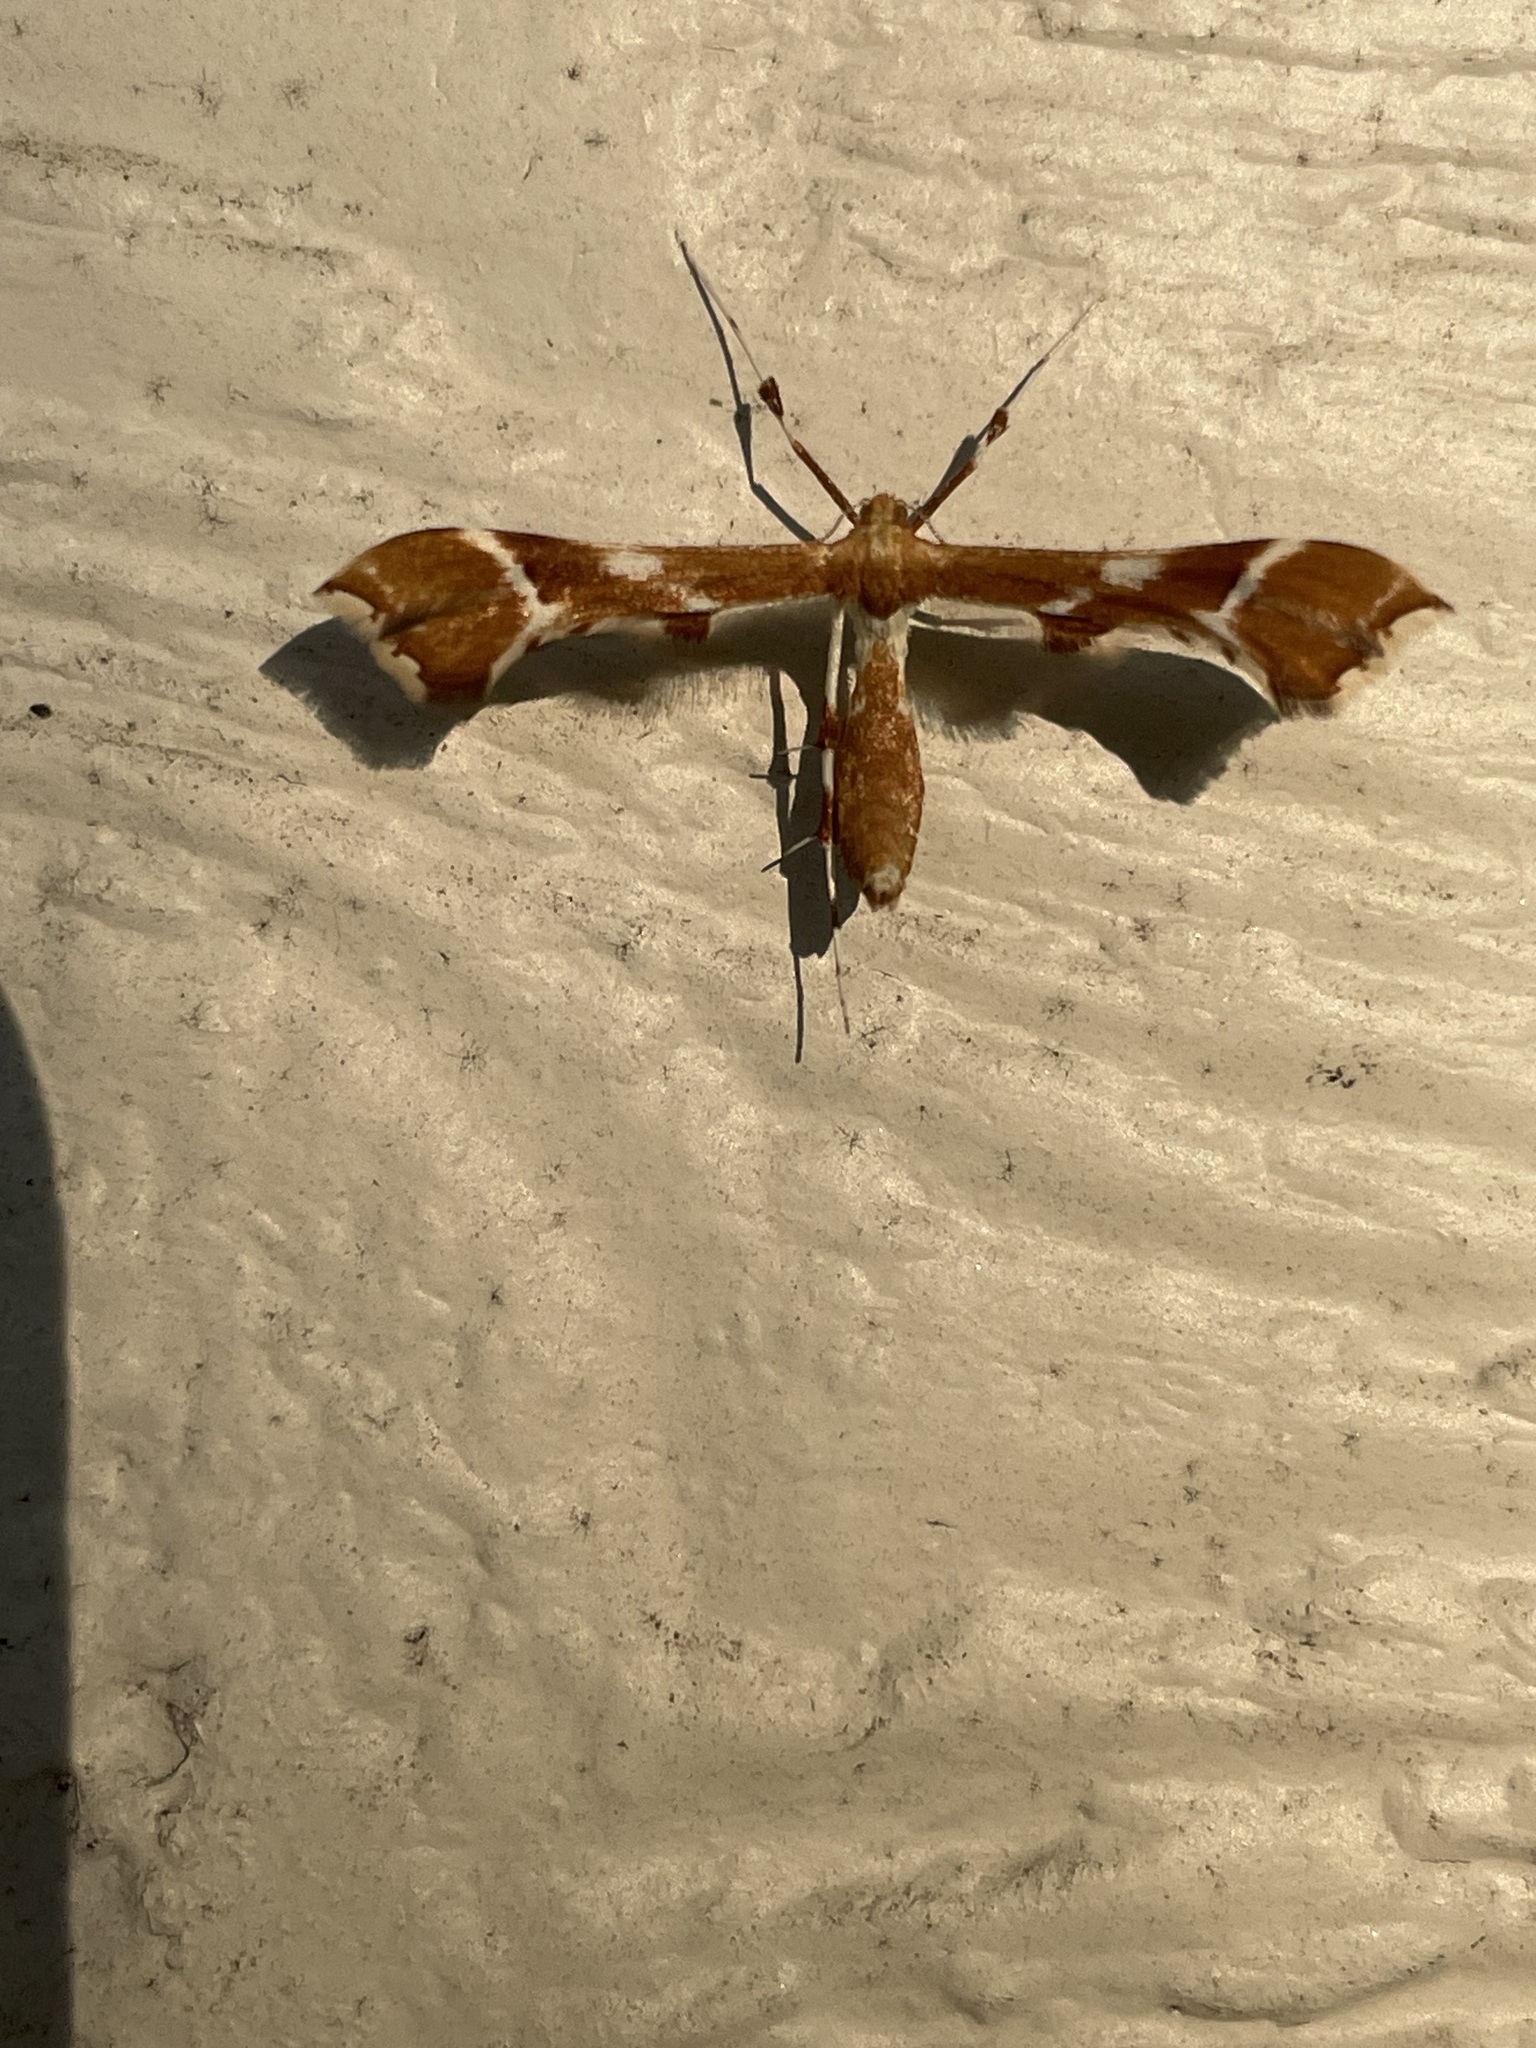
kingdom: Animalia
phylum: Arthropoda
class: Insecta
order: Lepidoptera
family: Pterophoridae
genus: Cnaemidophorus
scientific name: Cnaemidophorus rhododactyla
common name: Rose plume
